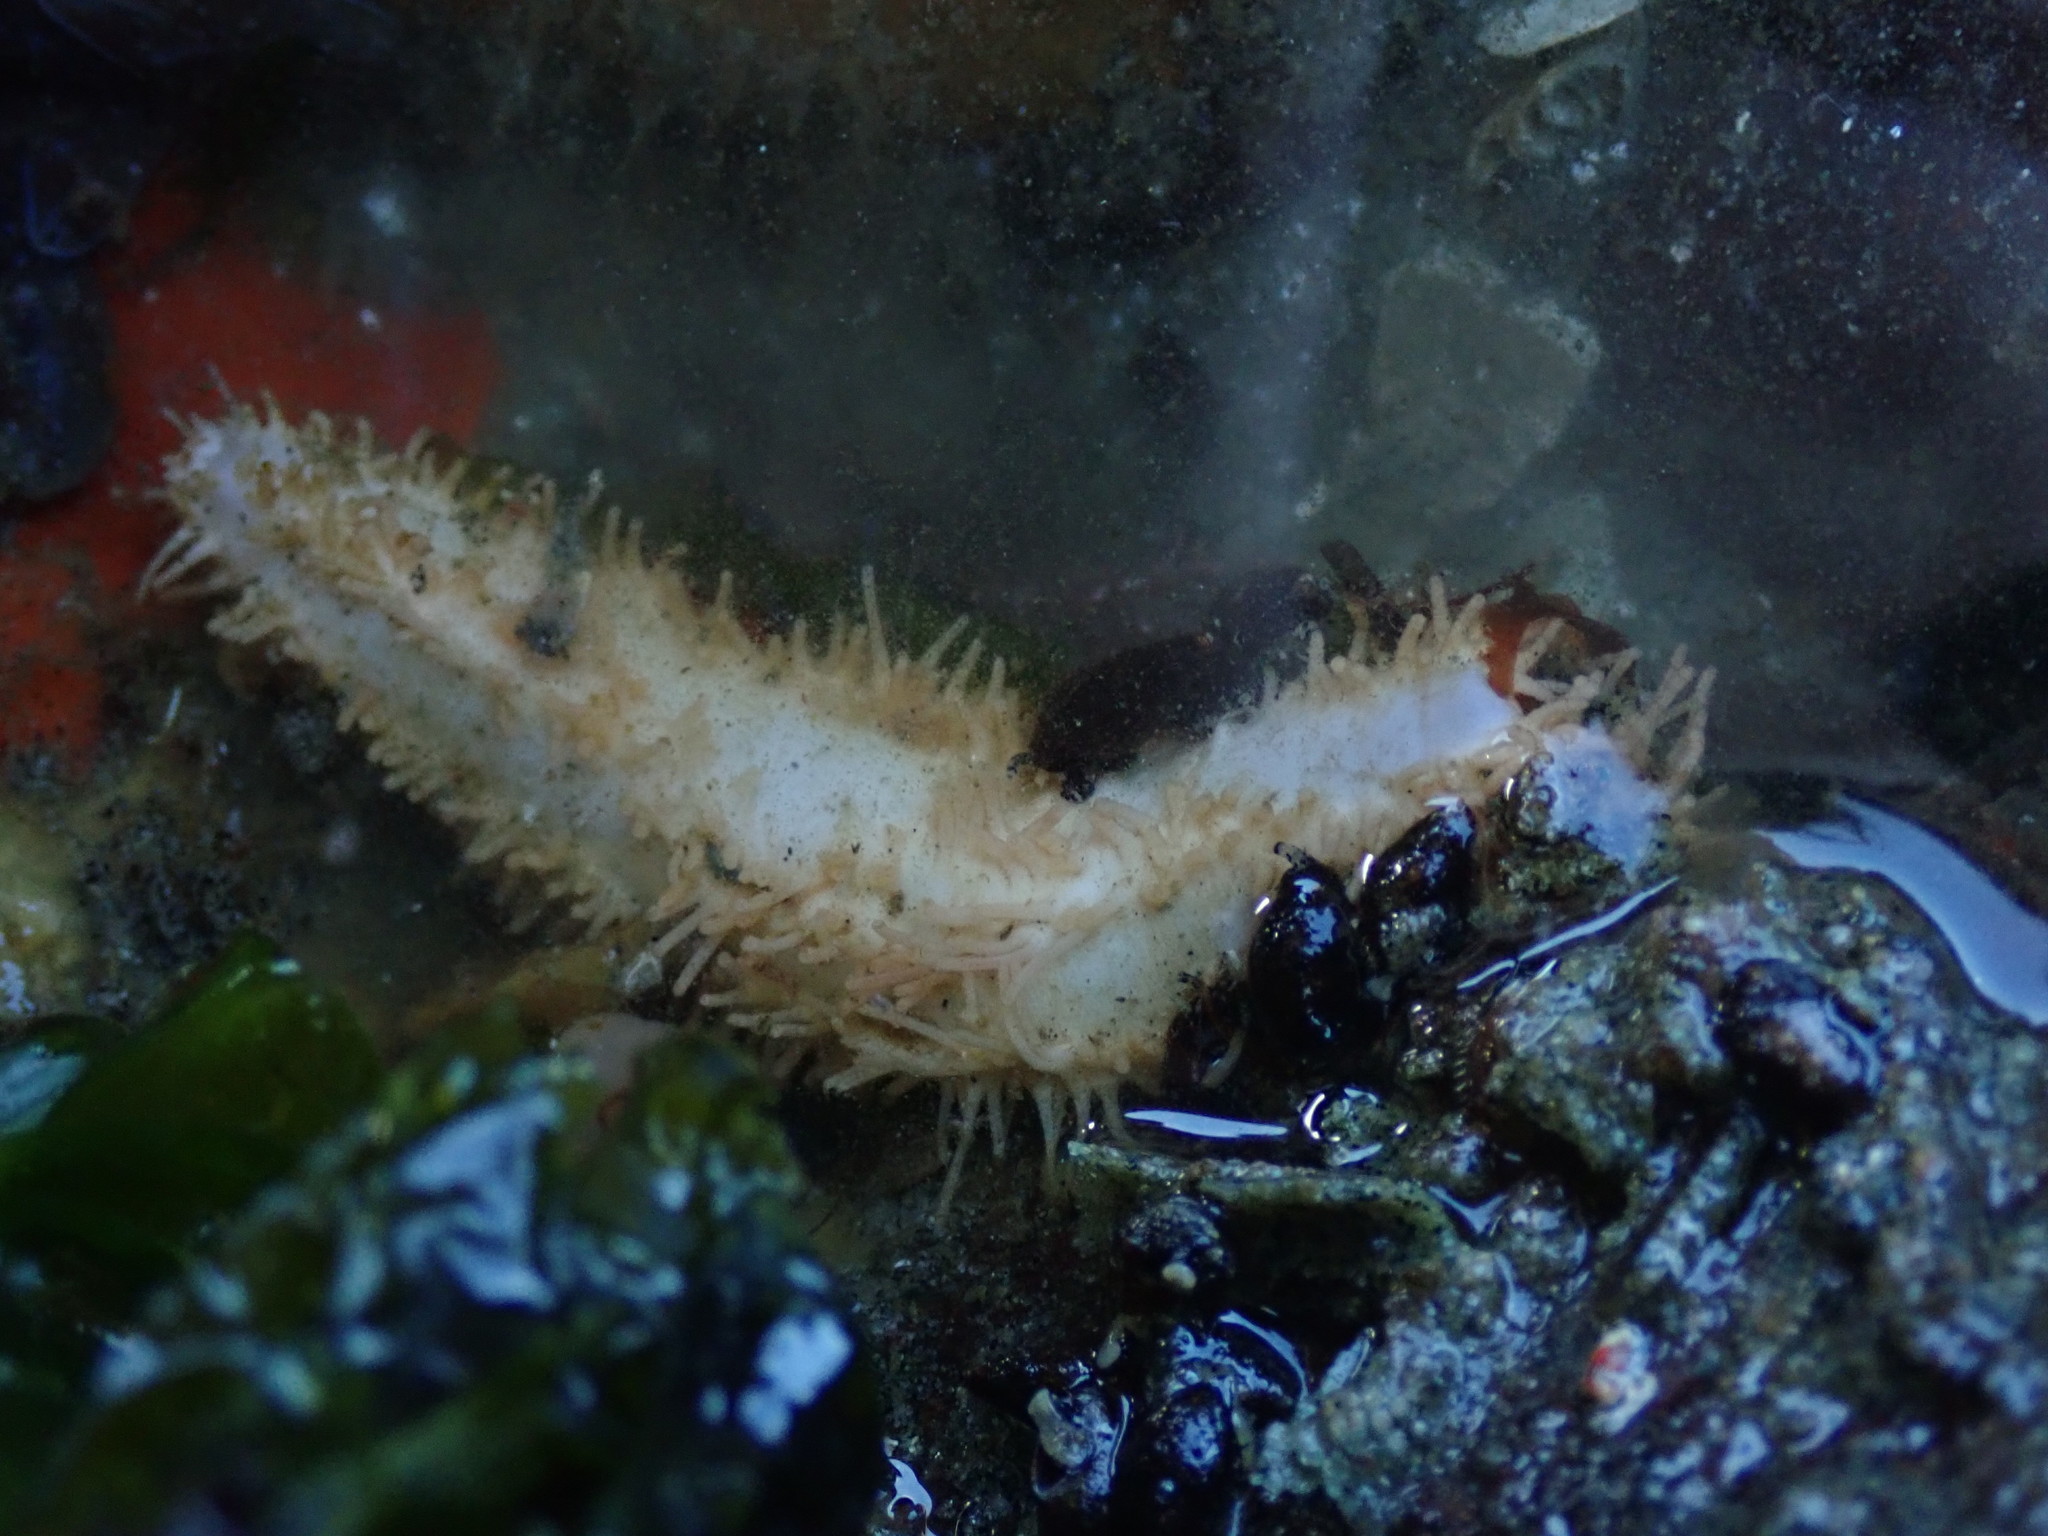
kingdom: Animalia
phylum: Echinodermata
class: Holothuroidea
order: Dendrochirotida
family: Sclerodactylidae
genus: Eupentacta
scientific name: Eupentacta quinquesemita
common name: Pentamerous sea cucumber
